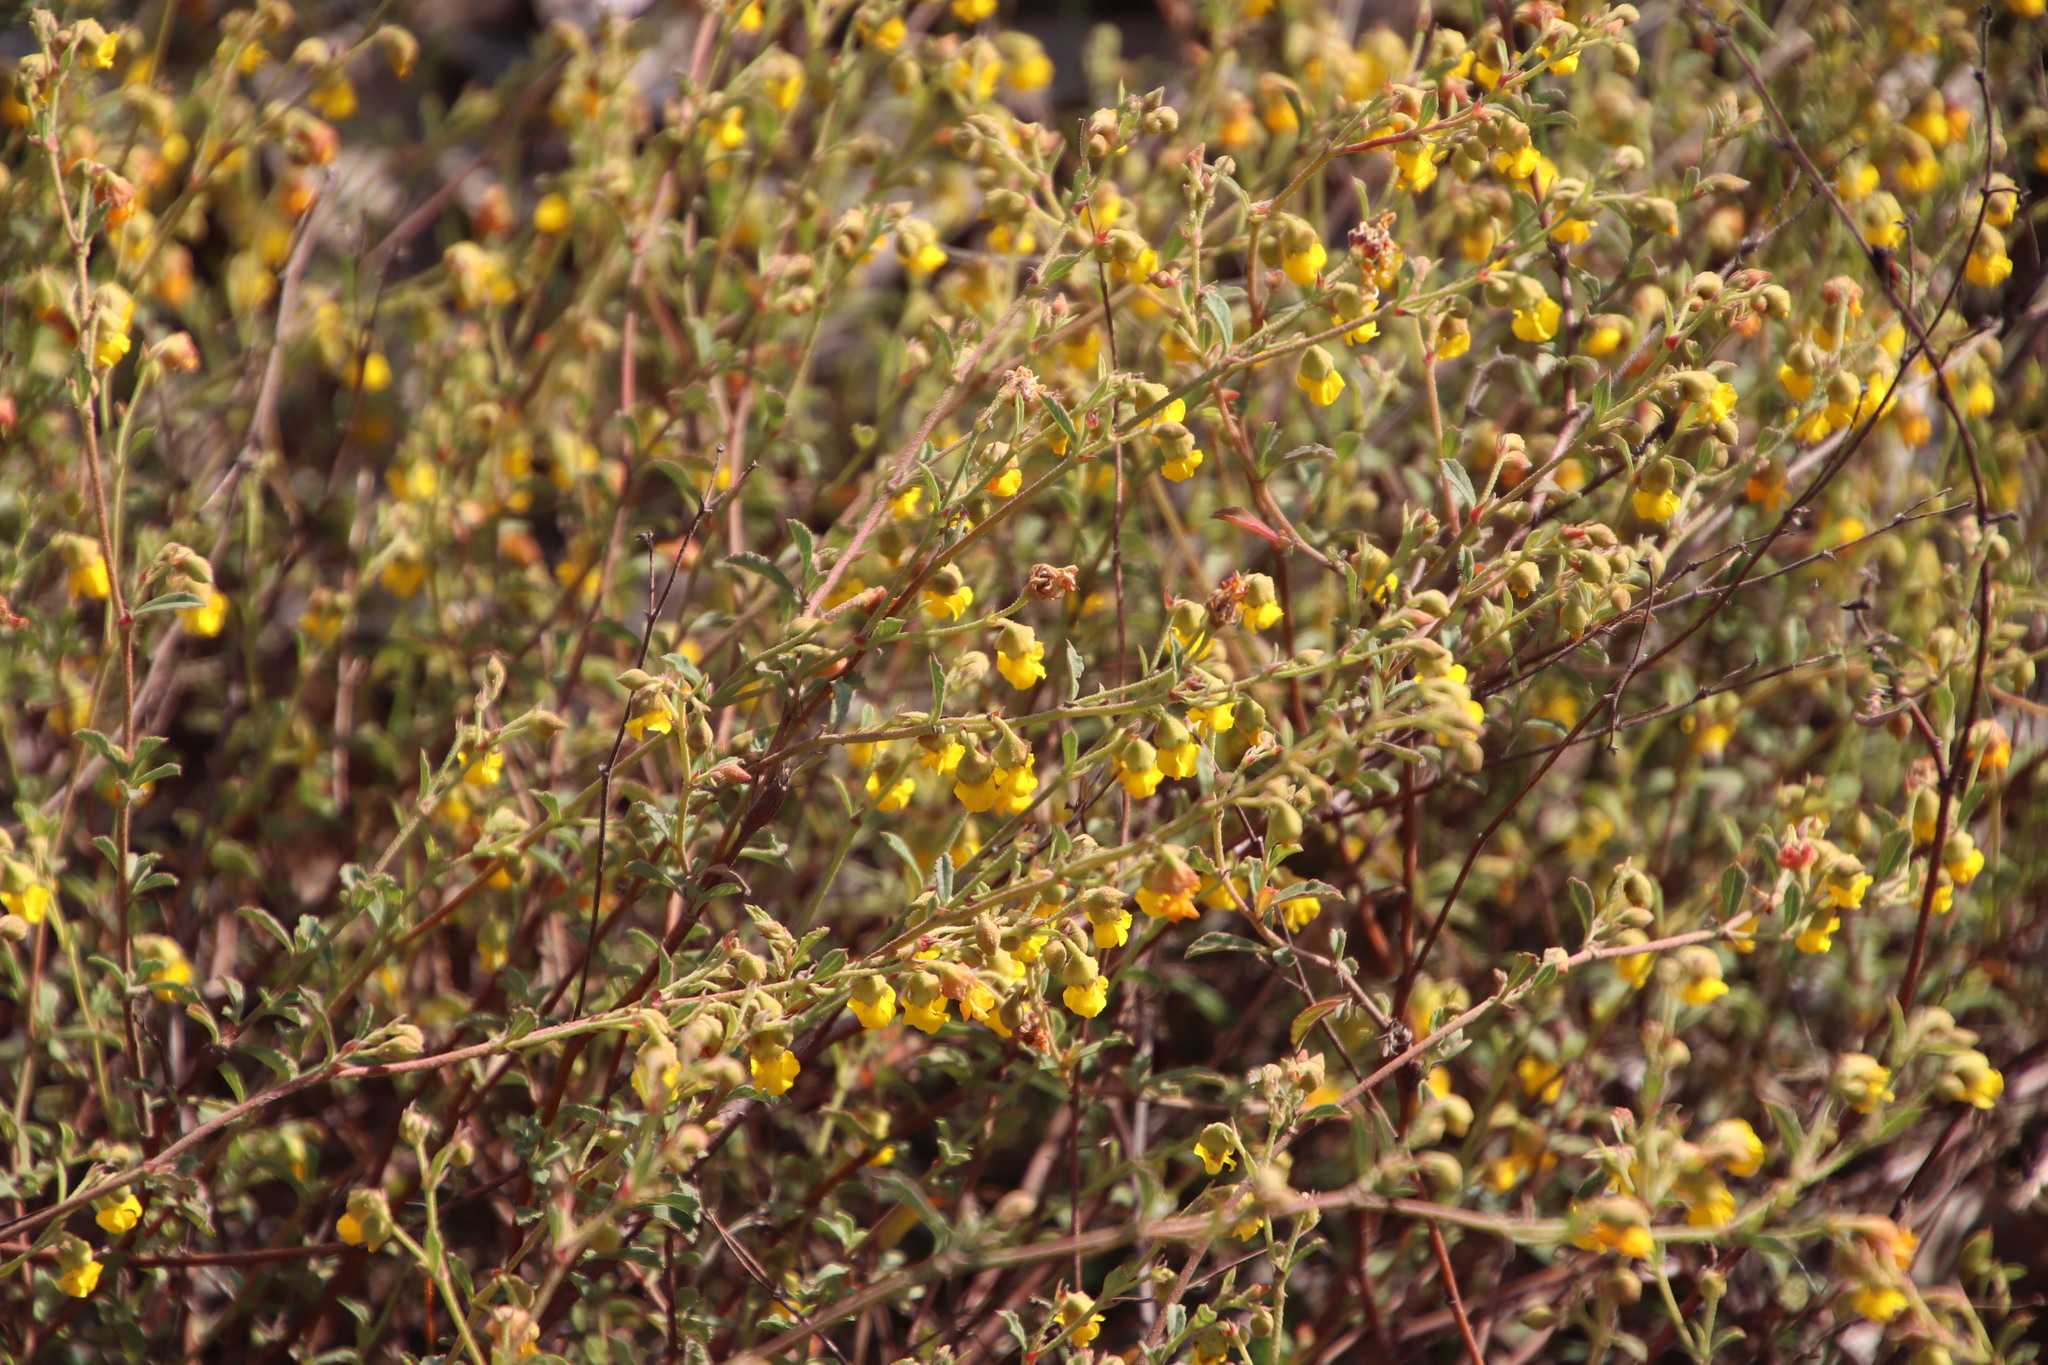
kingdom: Plantae
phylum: Tracheophyta
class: Magnoliopsida
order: Malvales
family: Malvaceae
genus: Hermannia
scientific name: Hermannia multiflora
